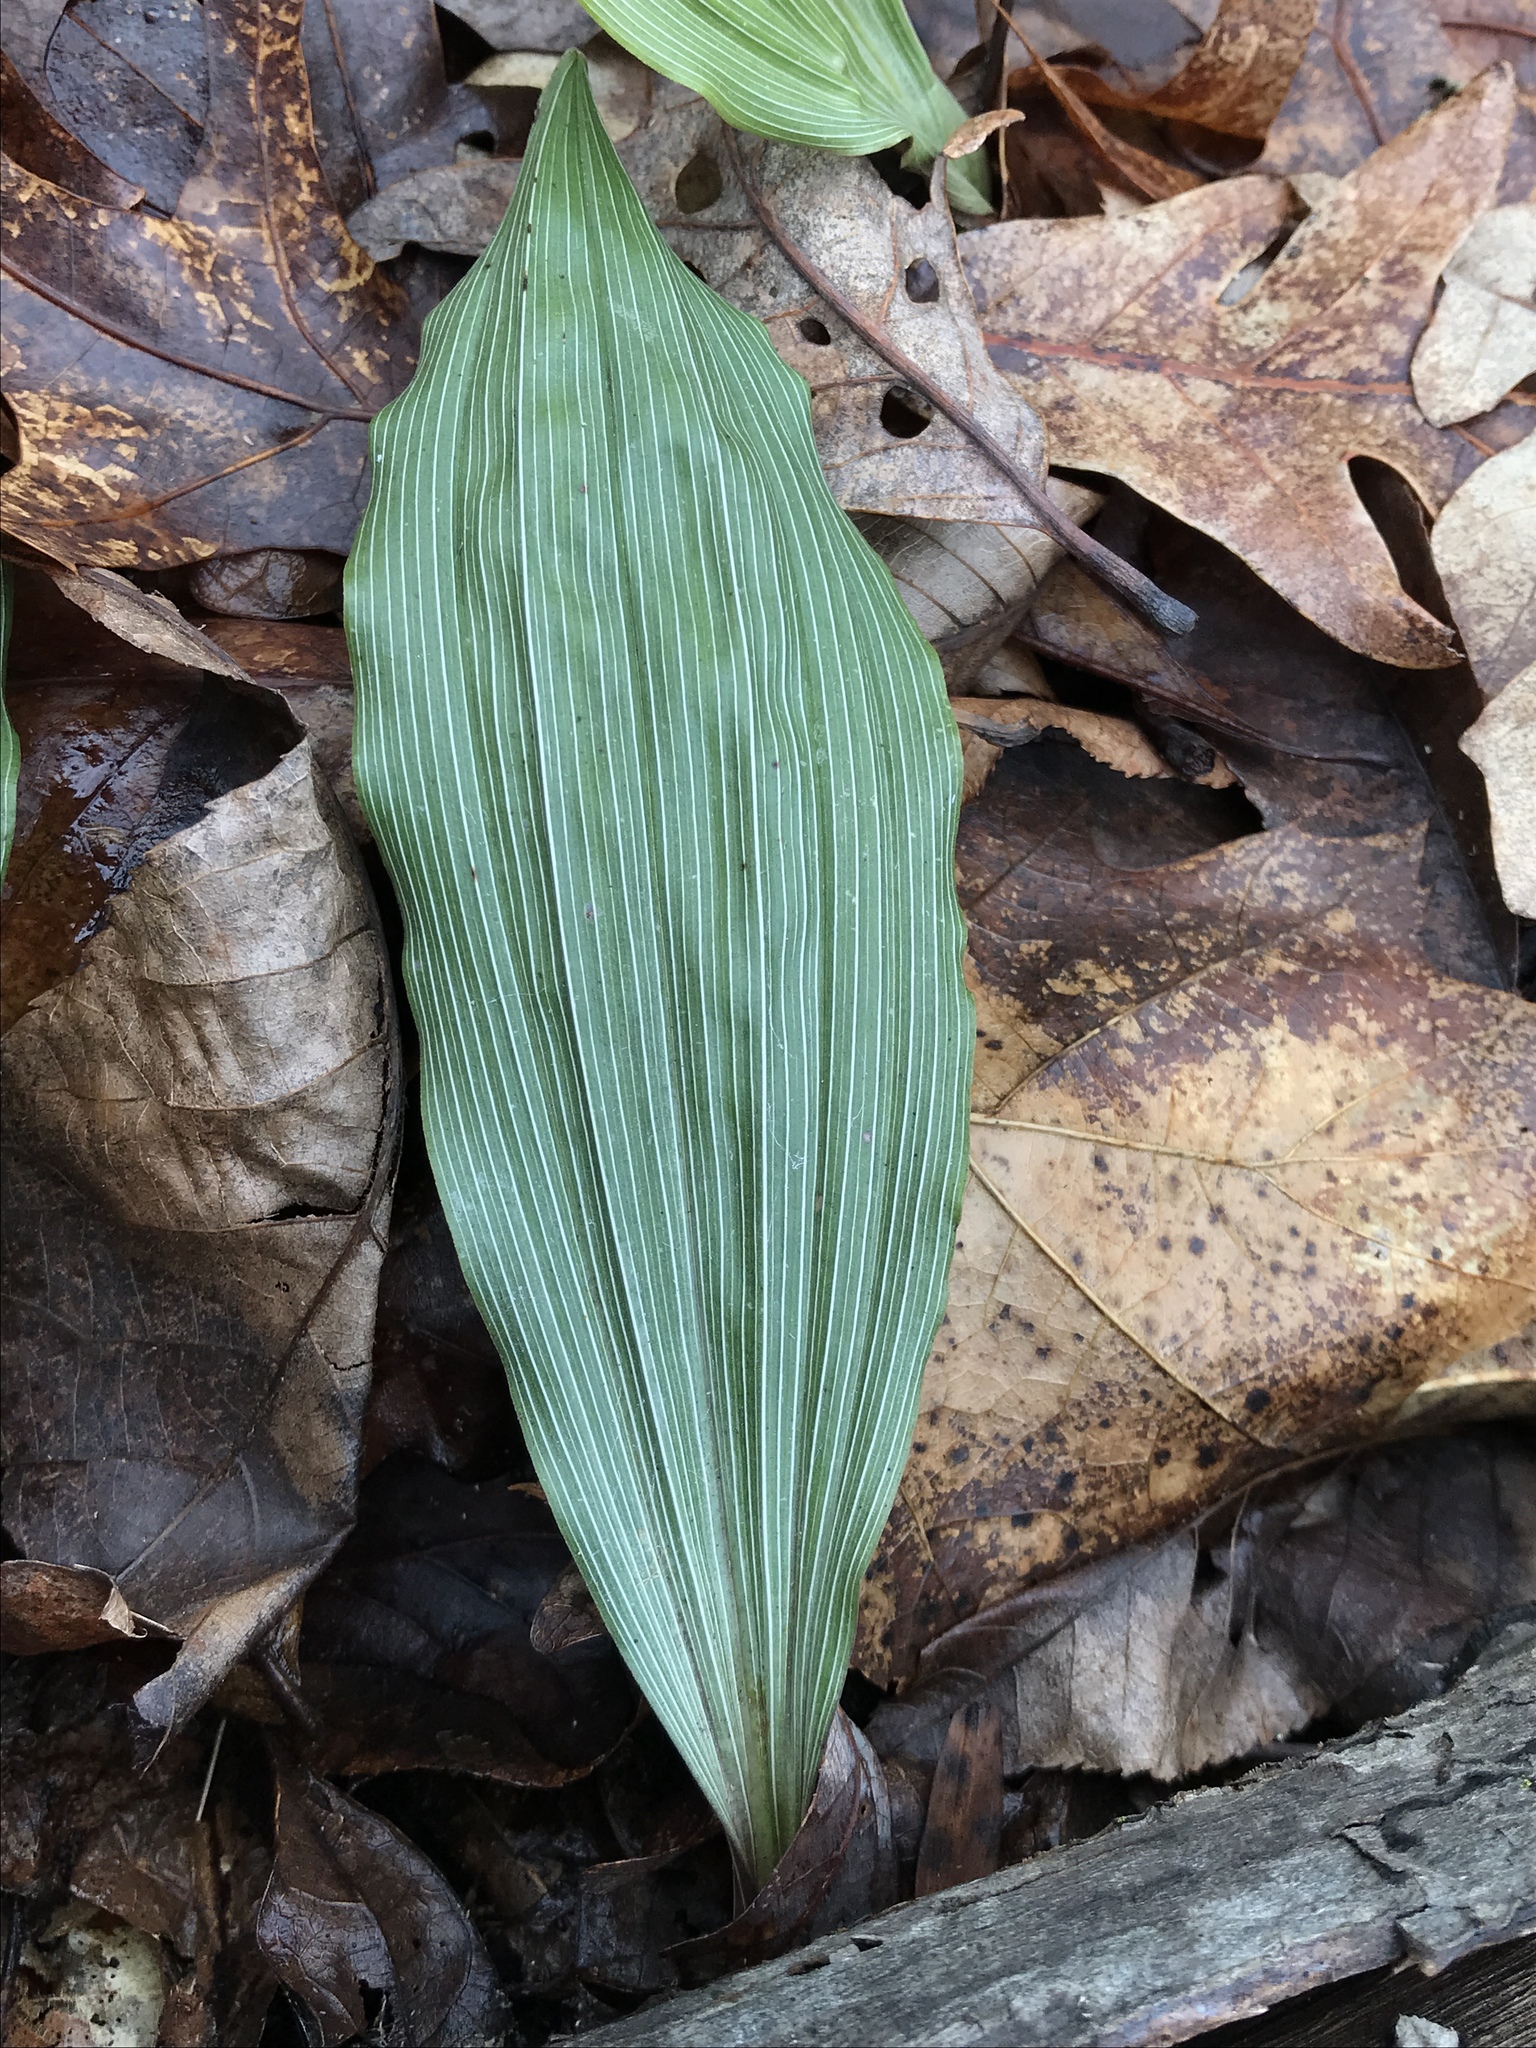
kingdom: Plantae
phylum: Tracheophyta
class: Liliopsida
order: Asparagales
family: Orchidaceae
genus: Aplectrum
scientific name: Aplectrum hyemale
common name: Adam-and-eve
